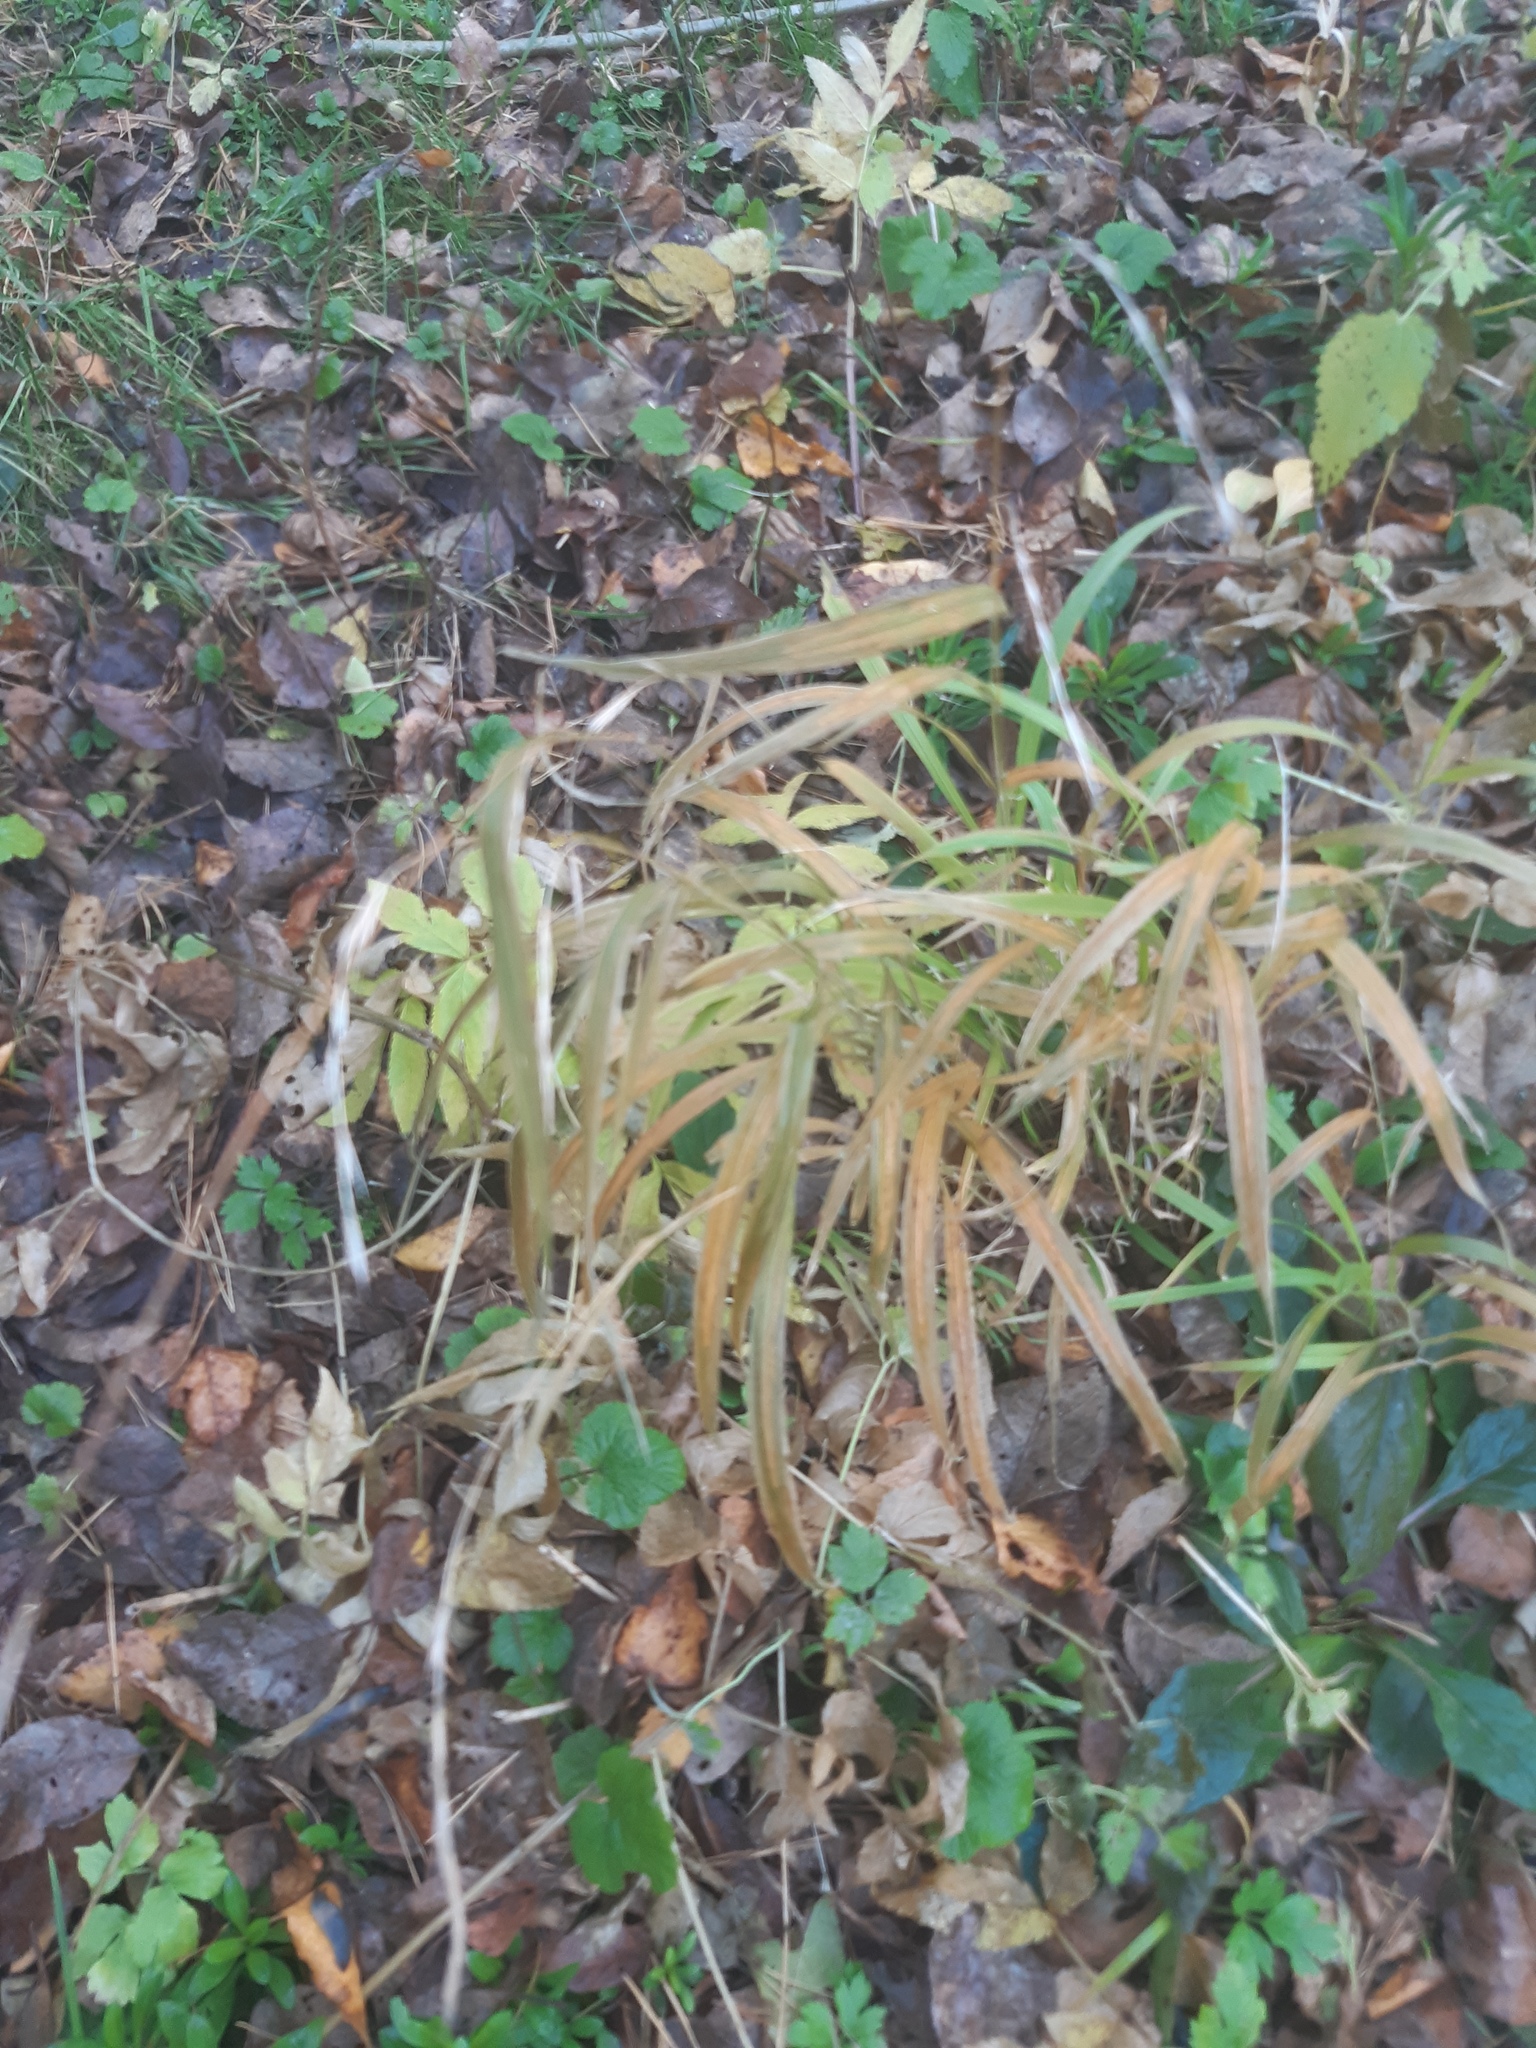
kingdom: Plantae
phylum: Tracheophyta
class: Liliopsida
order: Poales
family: Poaceae
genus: Lolium
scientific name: Lolium giganteum
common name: Giant fescue
